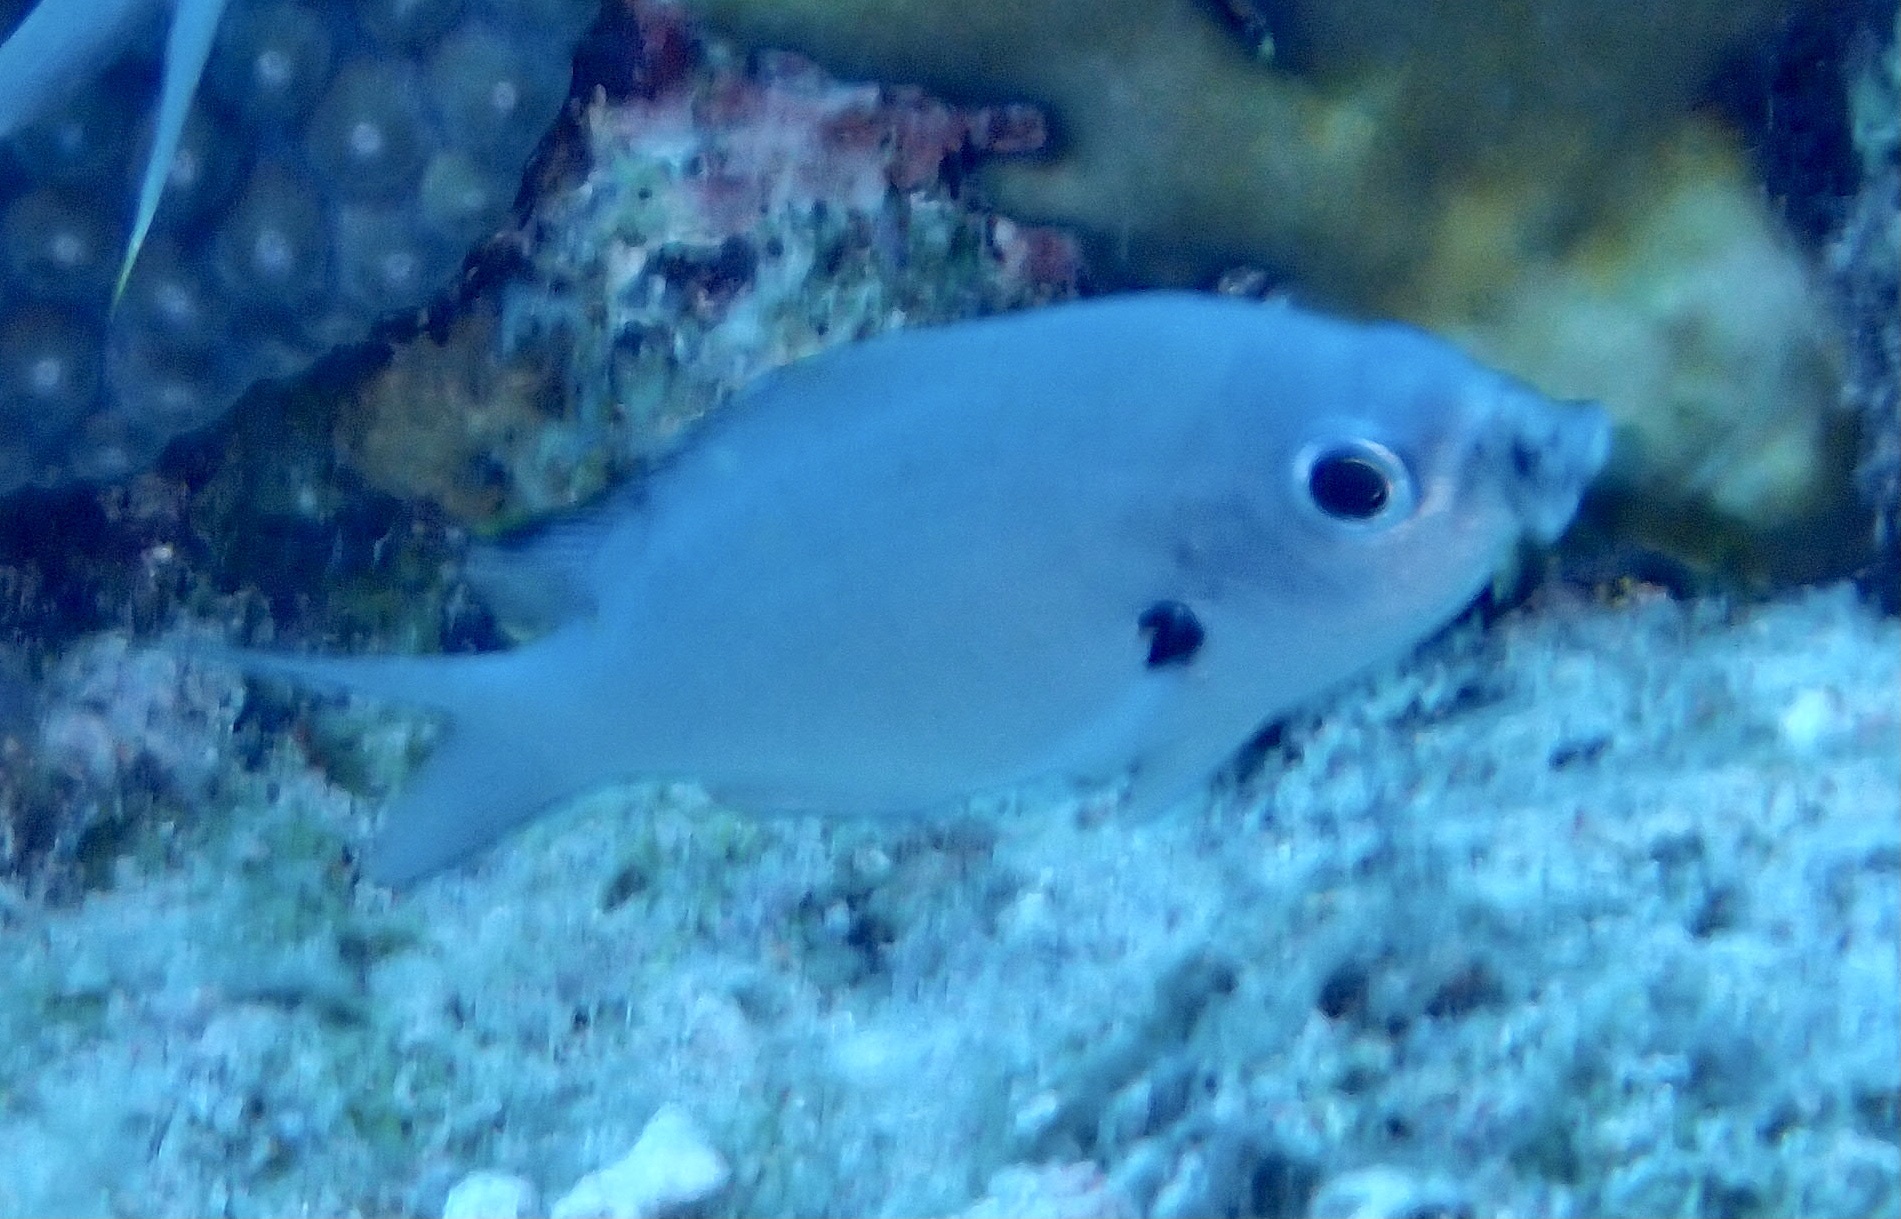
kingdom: Animalia
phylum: Chordata
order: Perciformes
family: Pomacentridae
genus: Chromis
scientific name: Chromis multilineata
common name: Brown chromis
